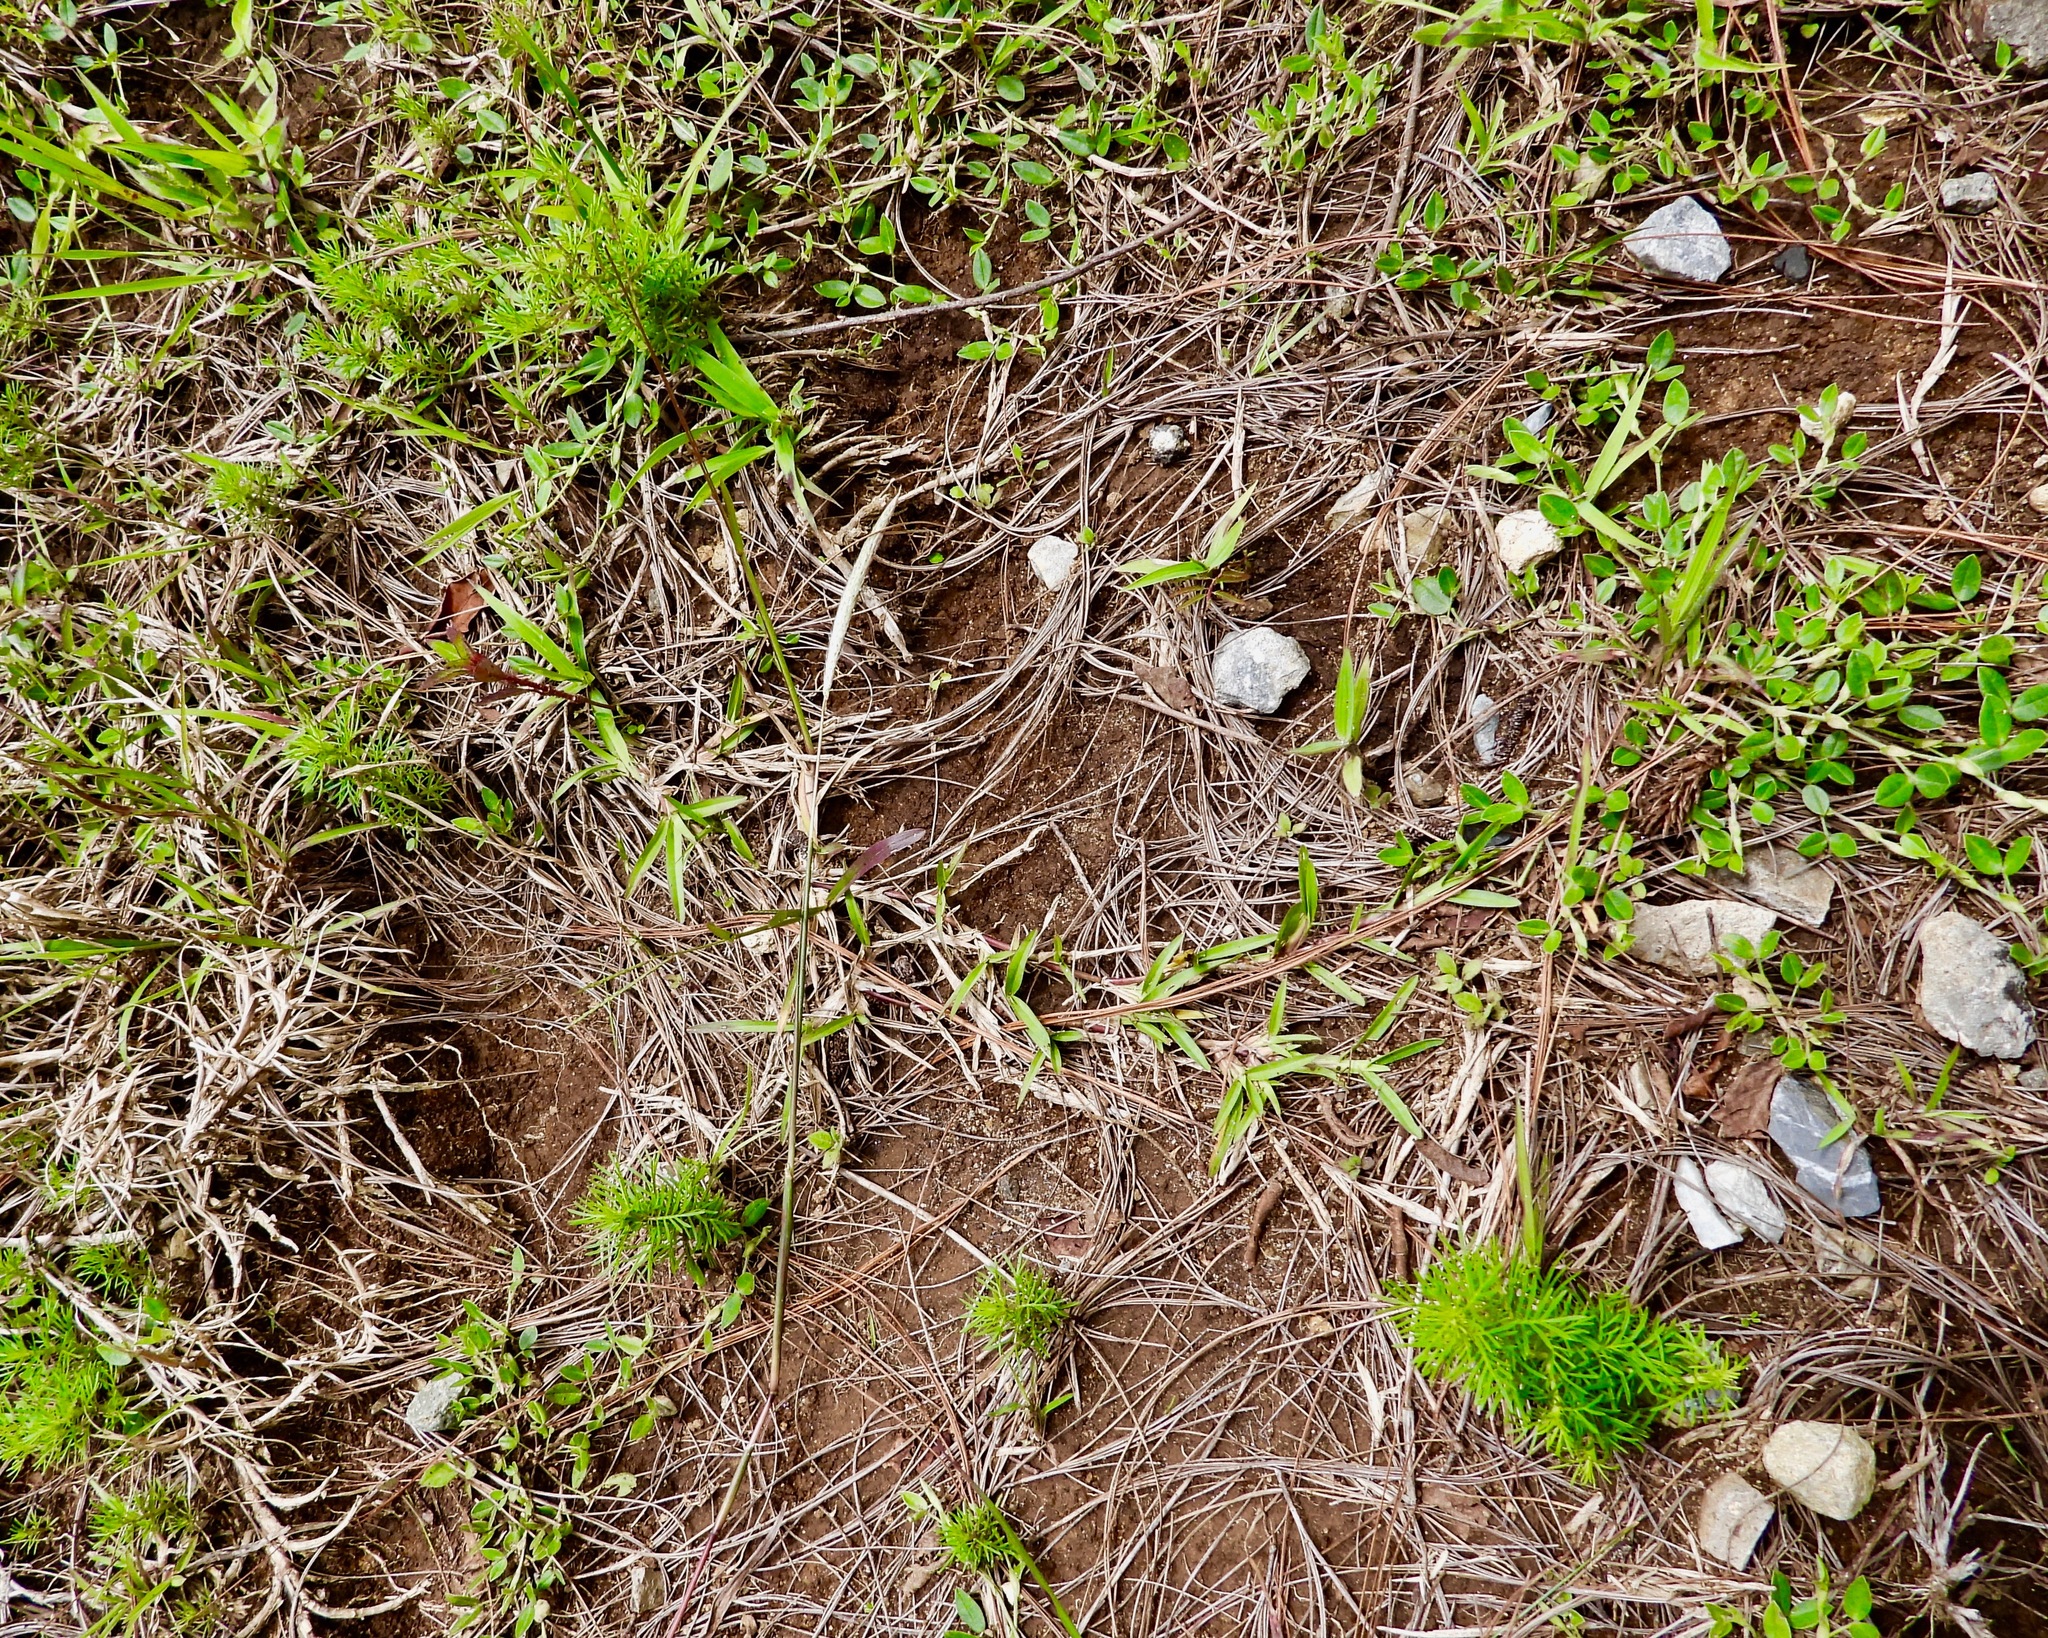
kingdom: Plantae
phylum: Tracheophyta
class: Magnoliopsida
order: Asterales
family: Asteraceae
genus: Tagetes
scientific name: Tagetes filifolia
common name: Lesser marigold
